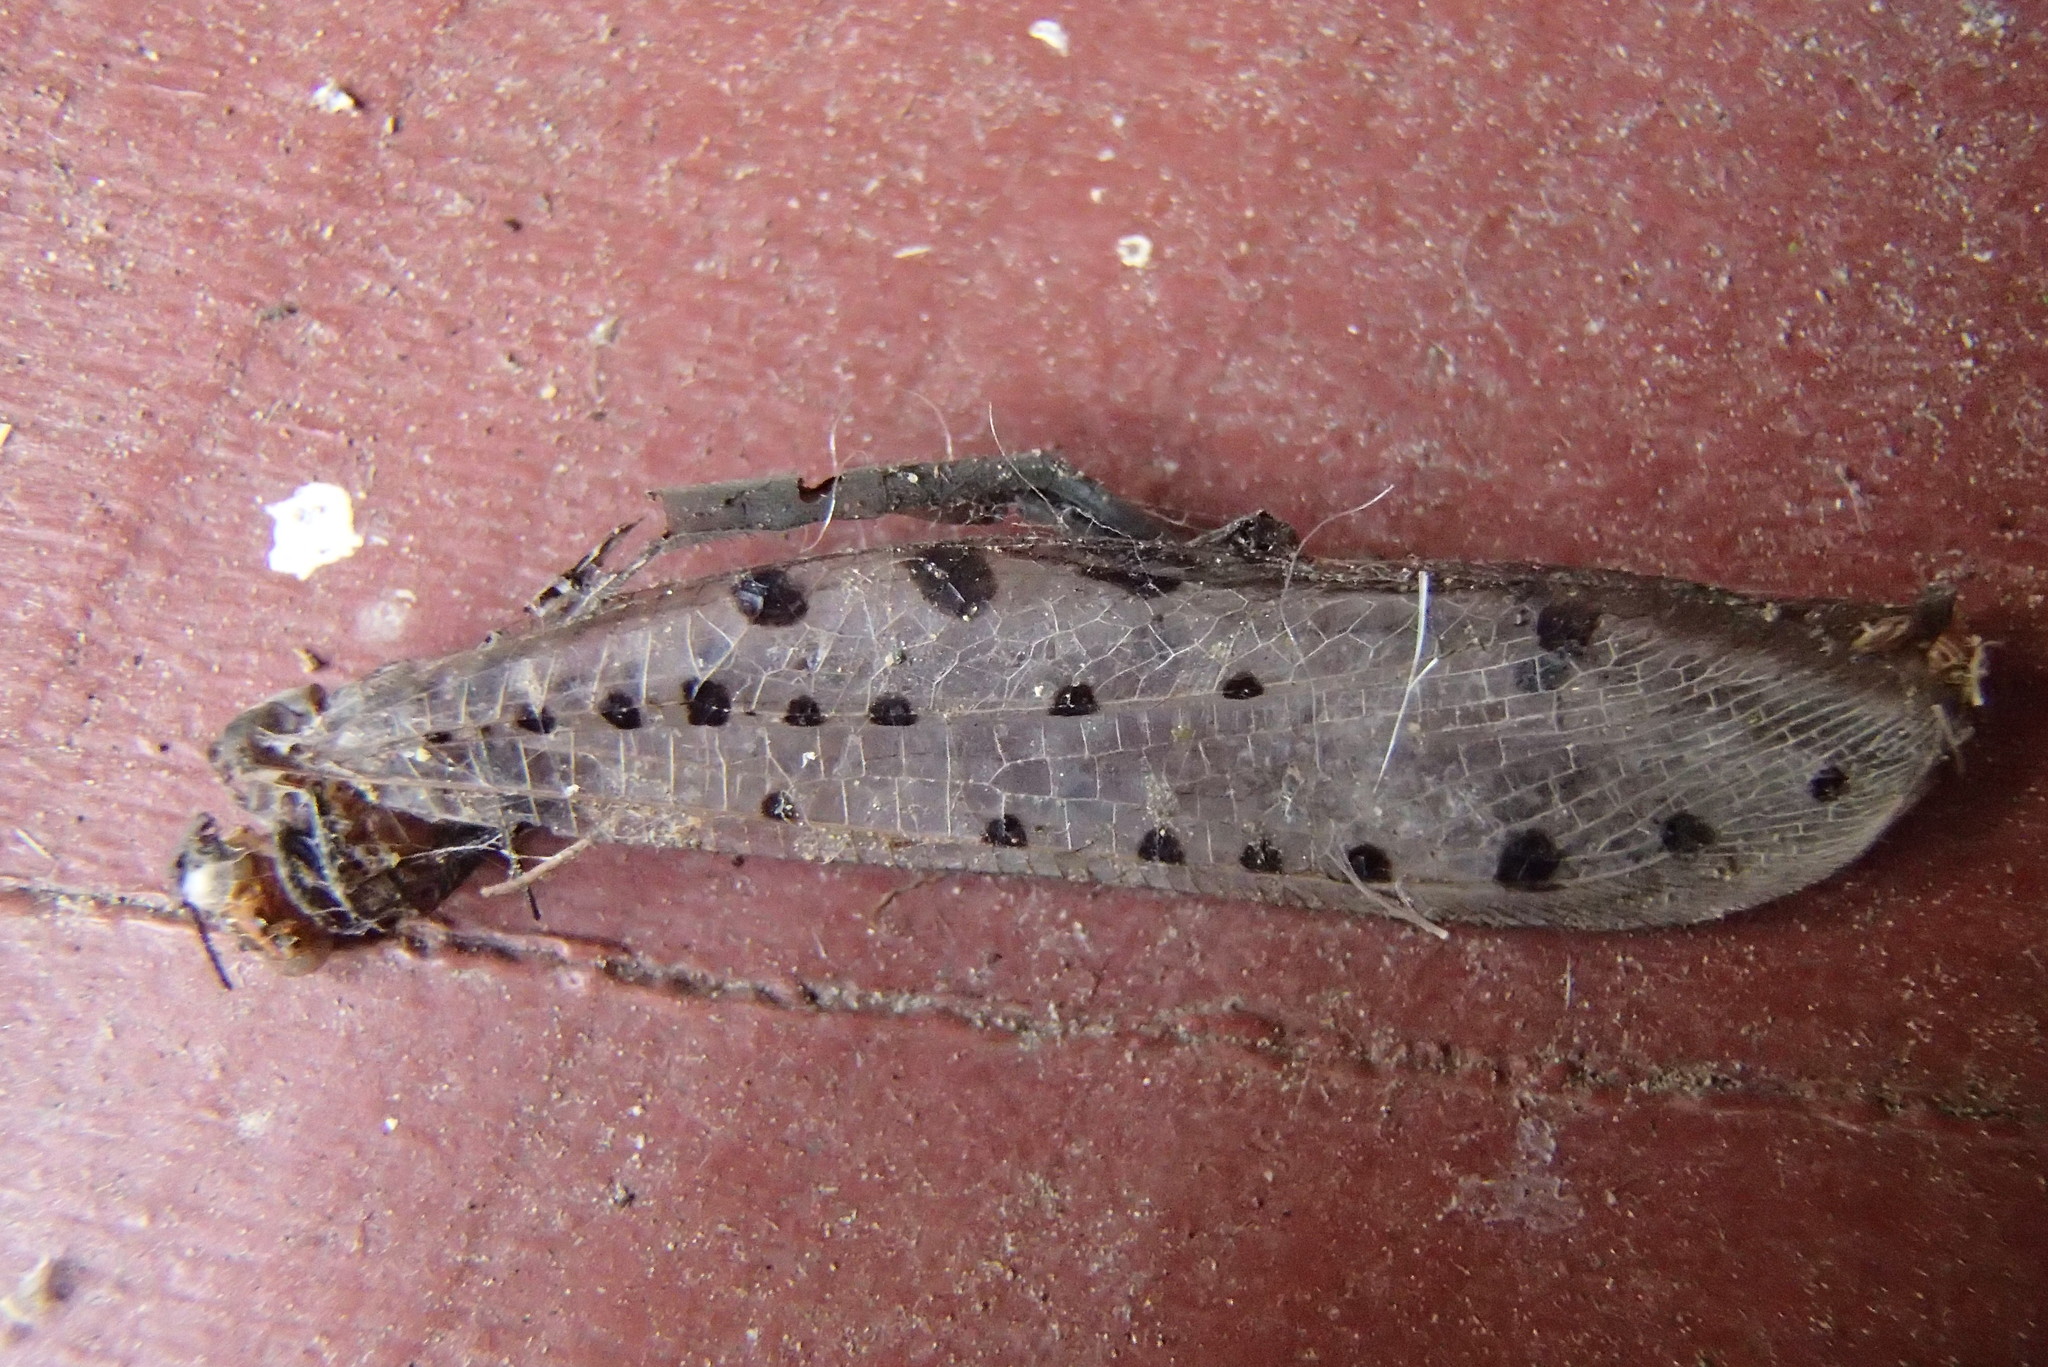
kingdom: Animalia
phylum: Arthropoda
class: Insecta
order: Neuroptera
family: Myrmeleontidae
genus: Myrmeleon
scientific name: Myrmeleon erythrocephalus
